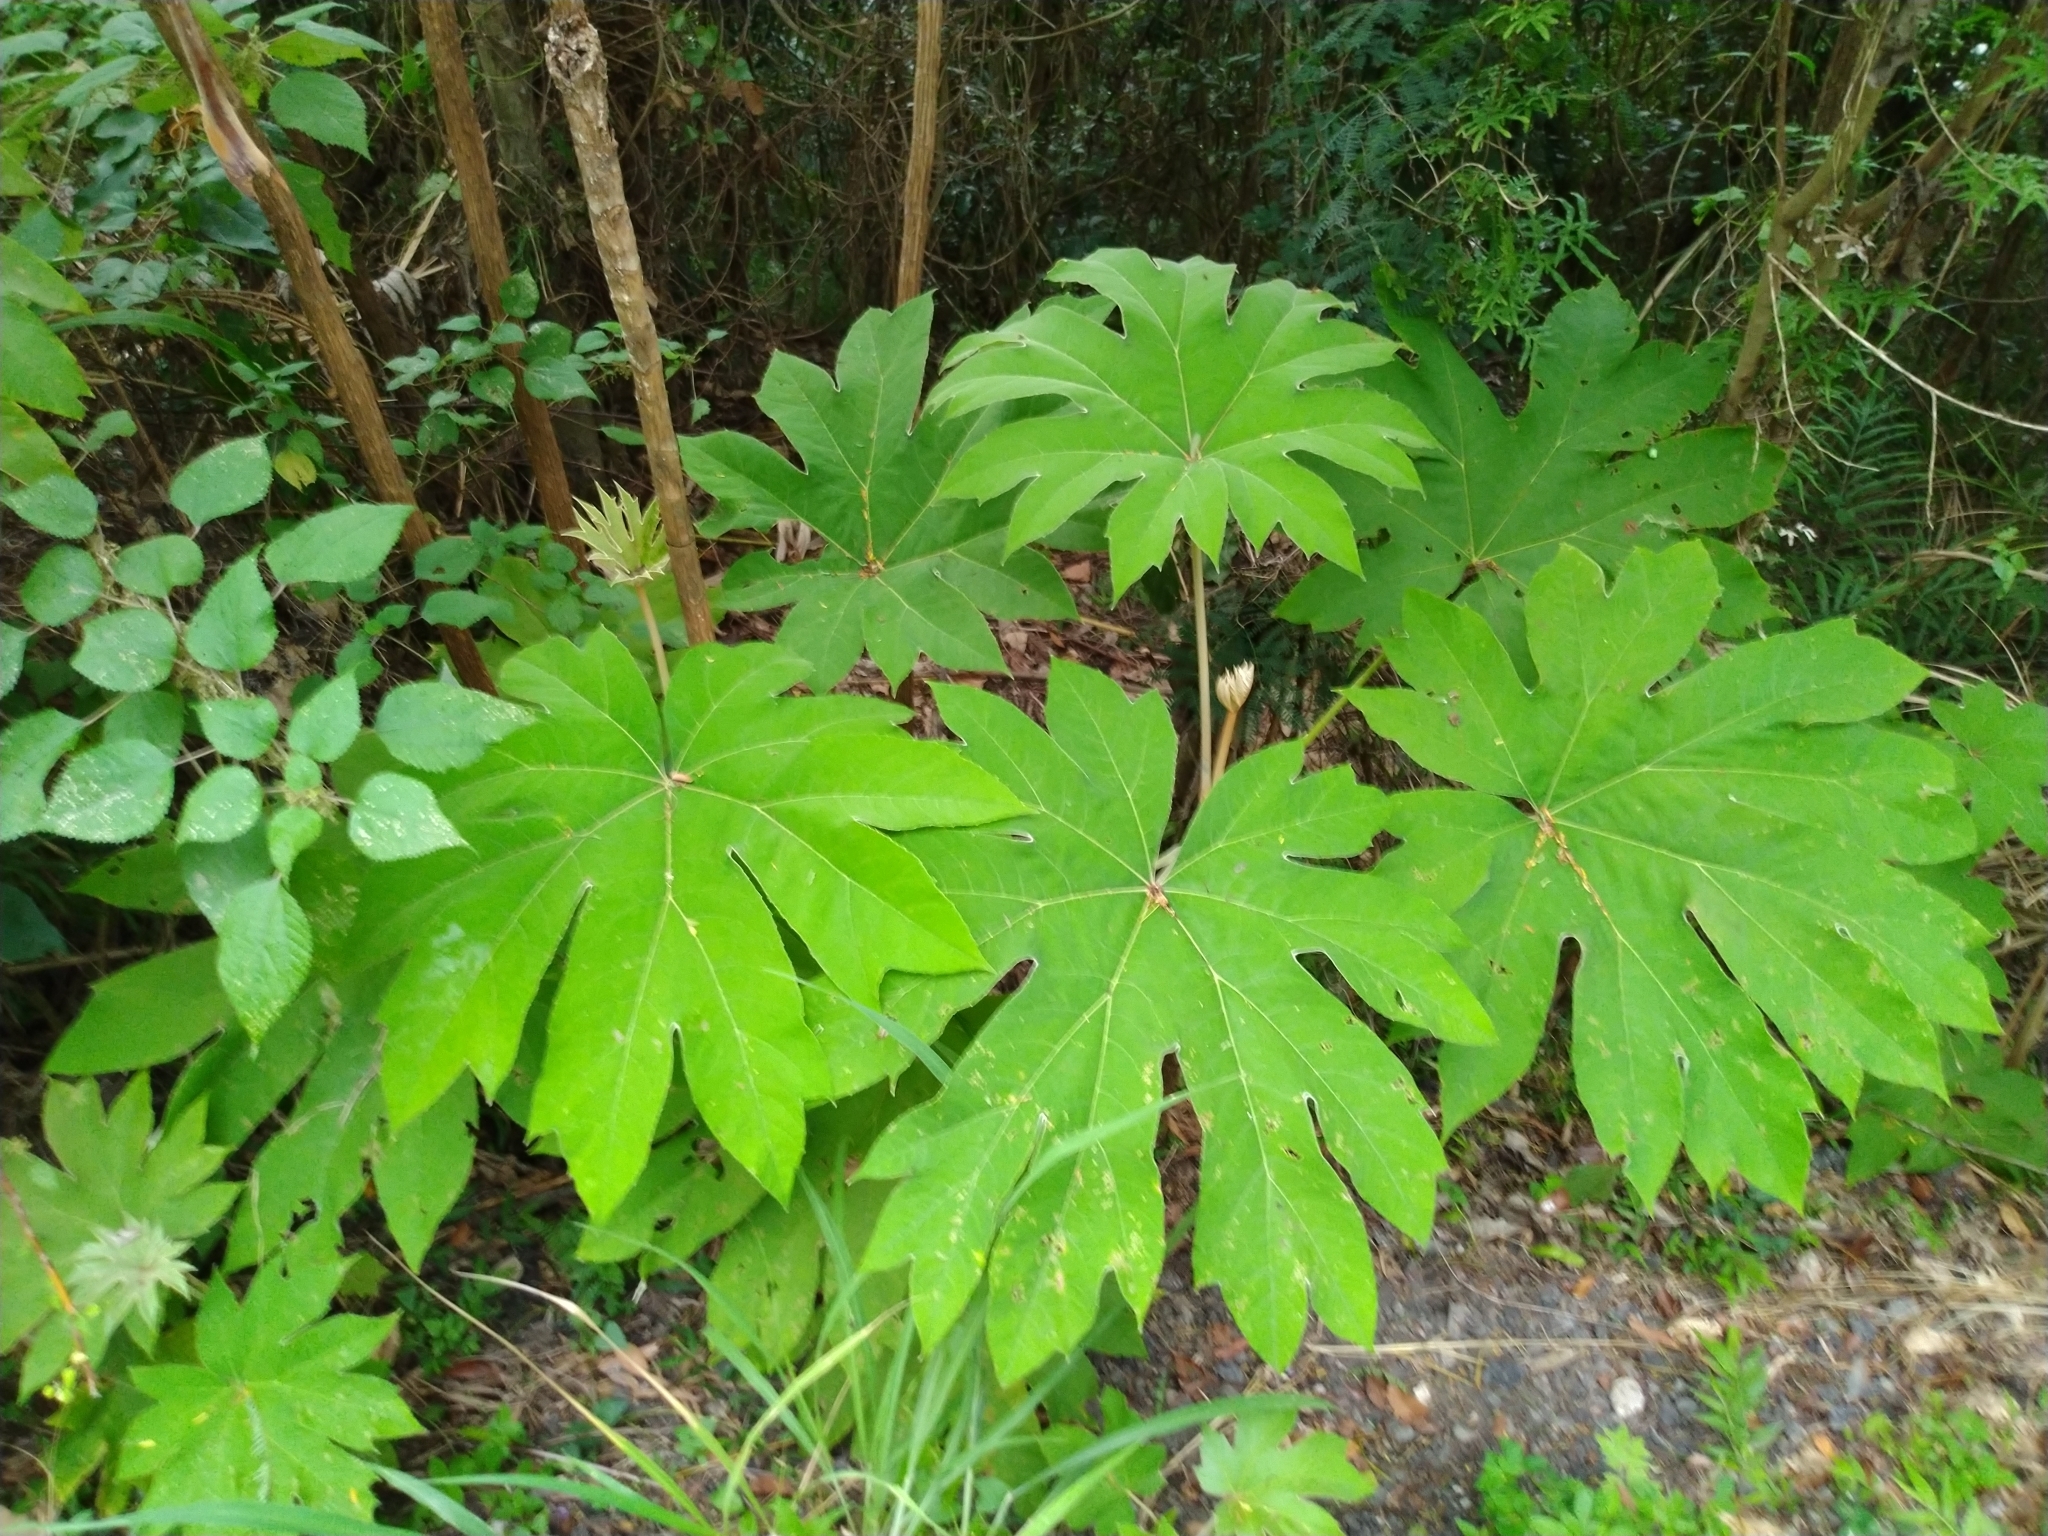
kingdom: Plantae
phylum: Tracheophyta
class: Magnoliopsida
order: Apiales
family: Araliaceae
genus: Tetrapanax
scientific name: Tetrapanax papyrifer
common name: Rice-paper plant
